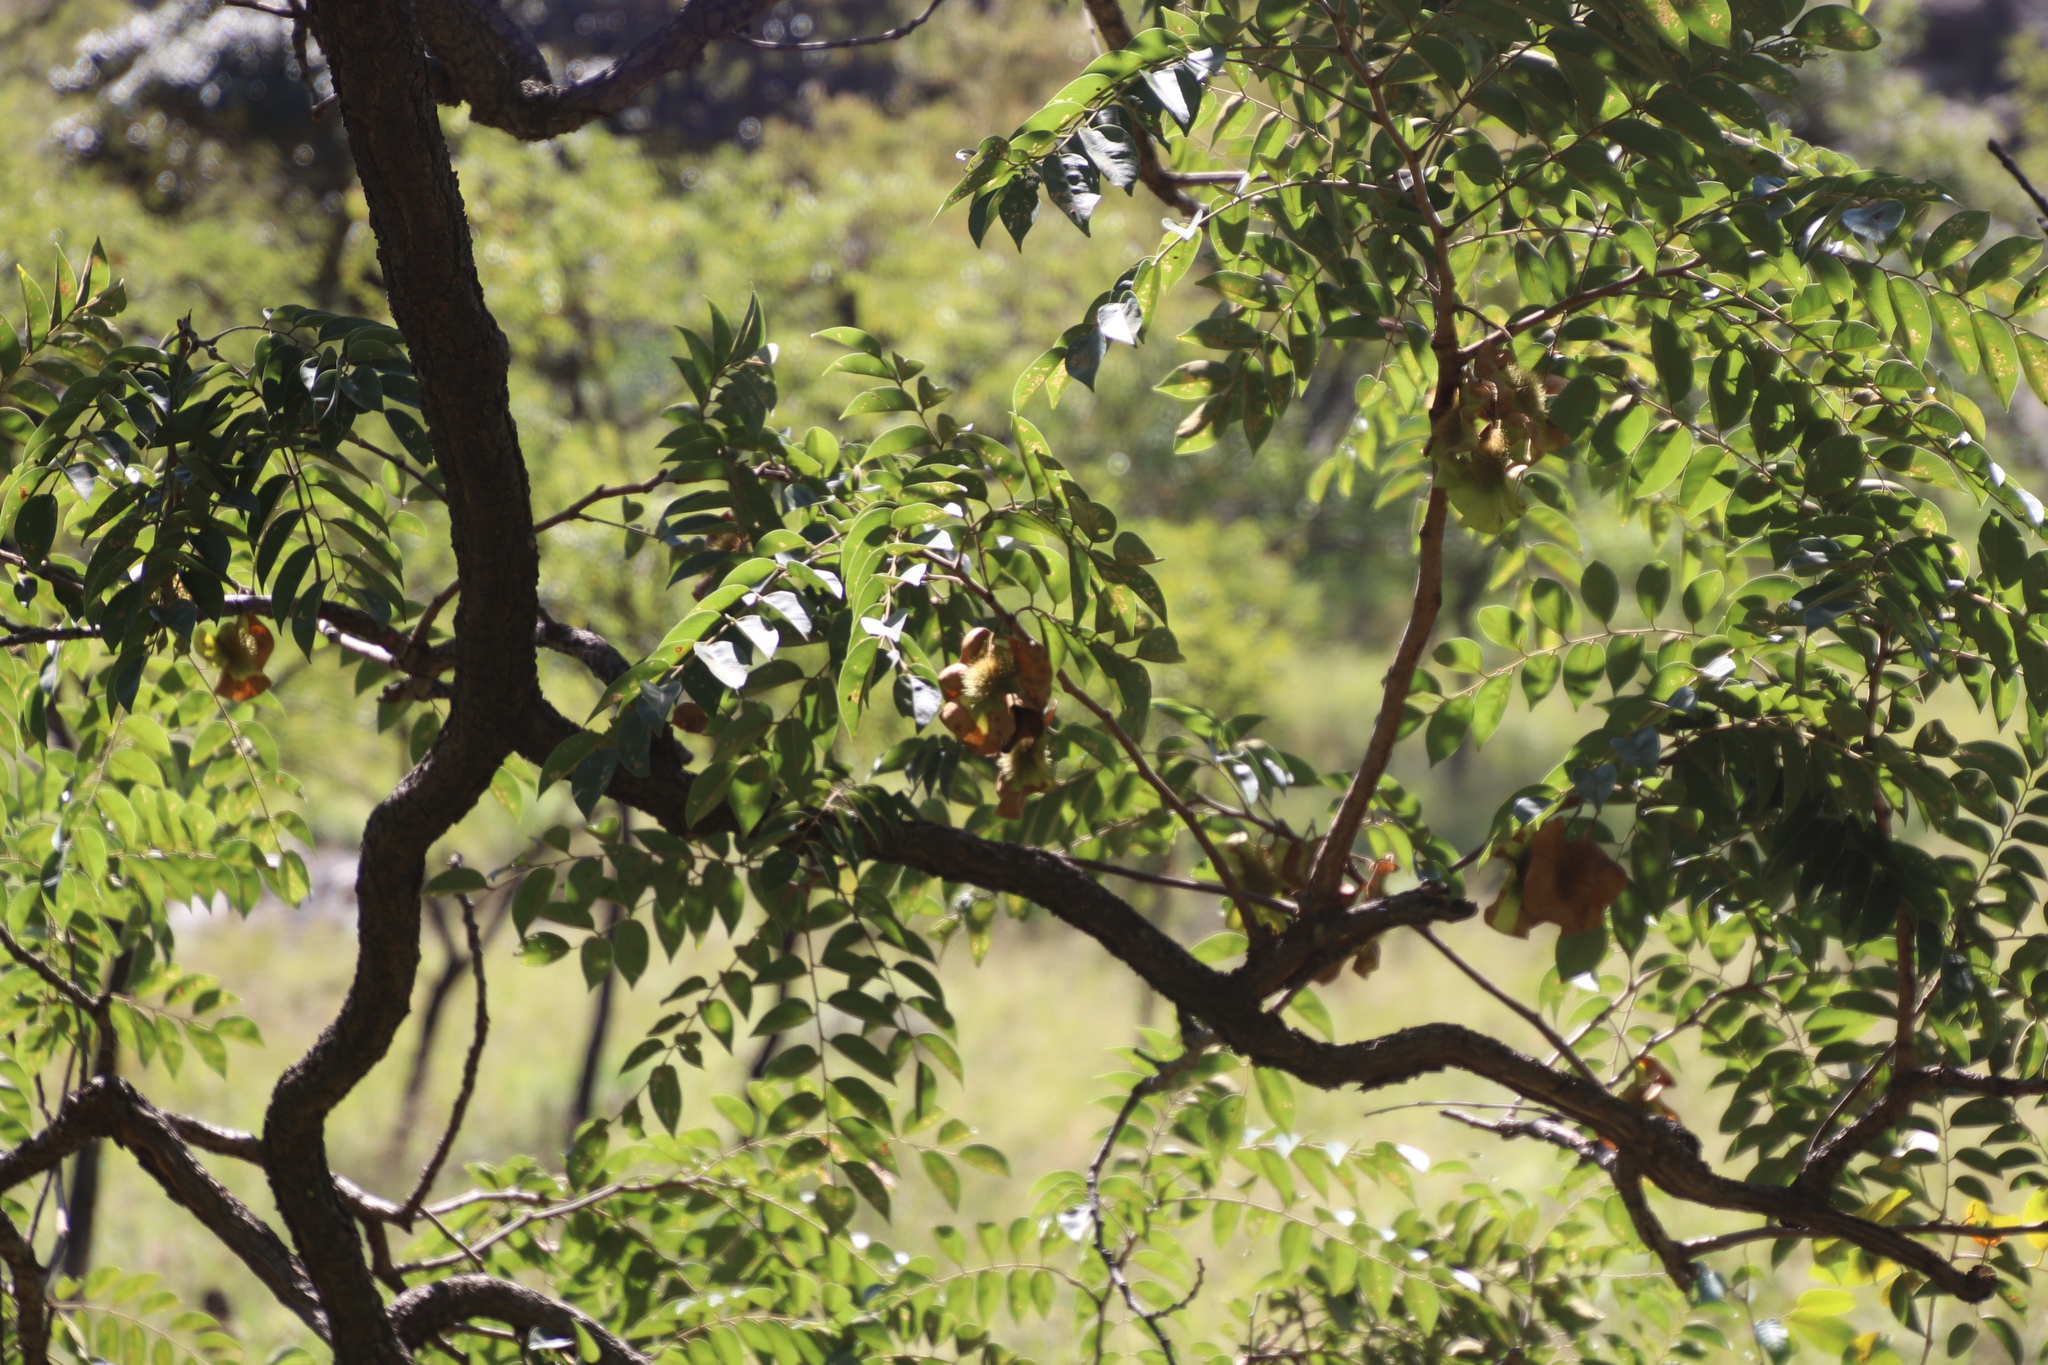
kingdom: Plantae
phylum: Tracheophyta
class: Magnoliopsida
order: Fabales
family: Fabaceae
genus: Pterocarpus
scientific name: Pterocarpus angolensis
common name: Bloodwood tree
